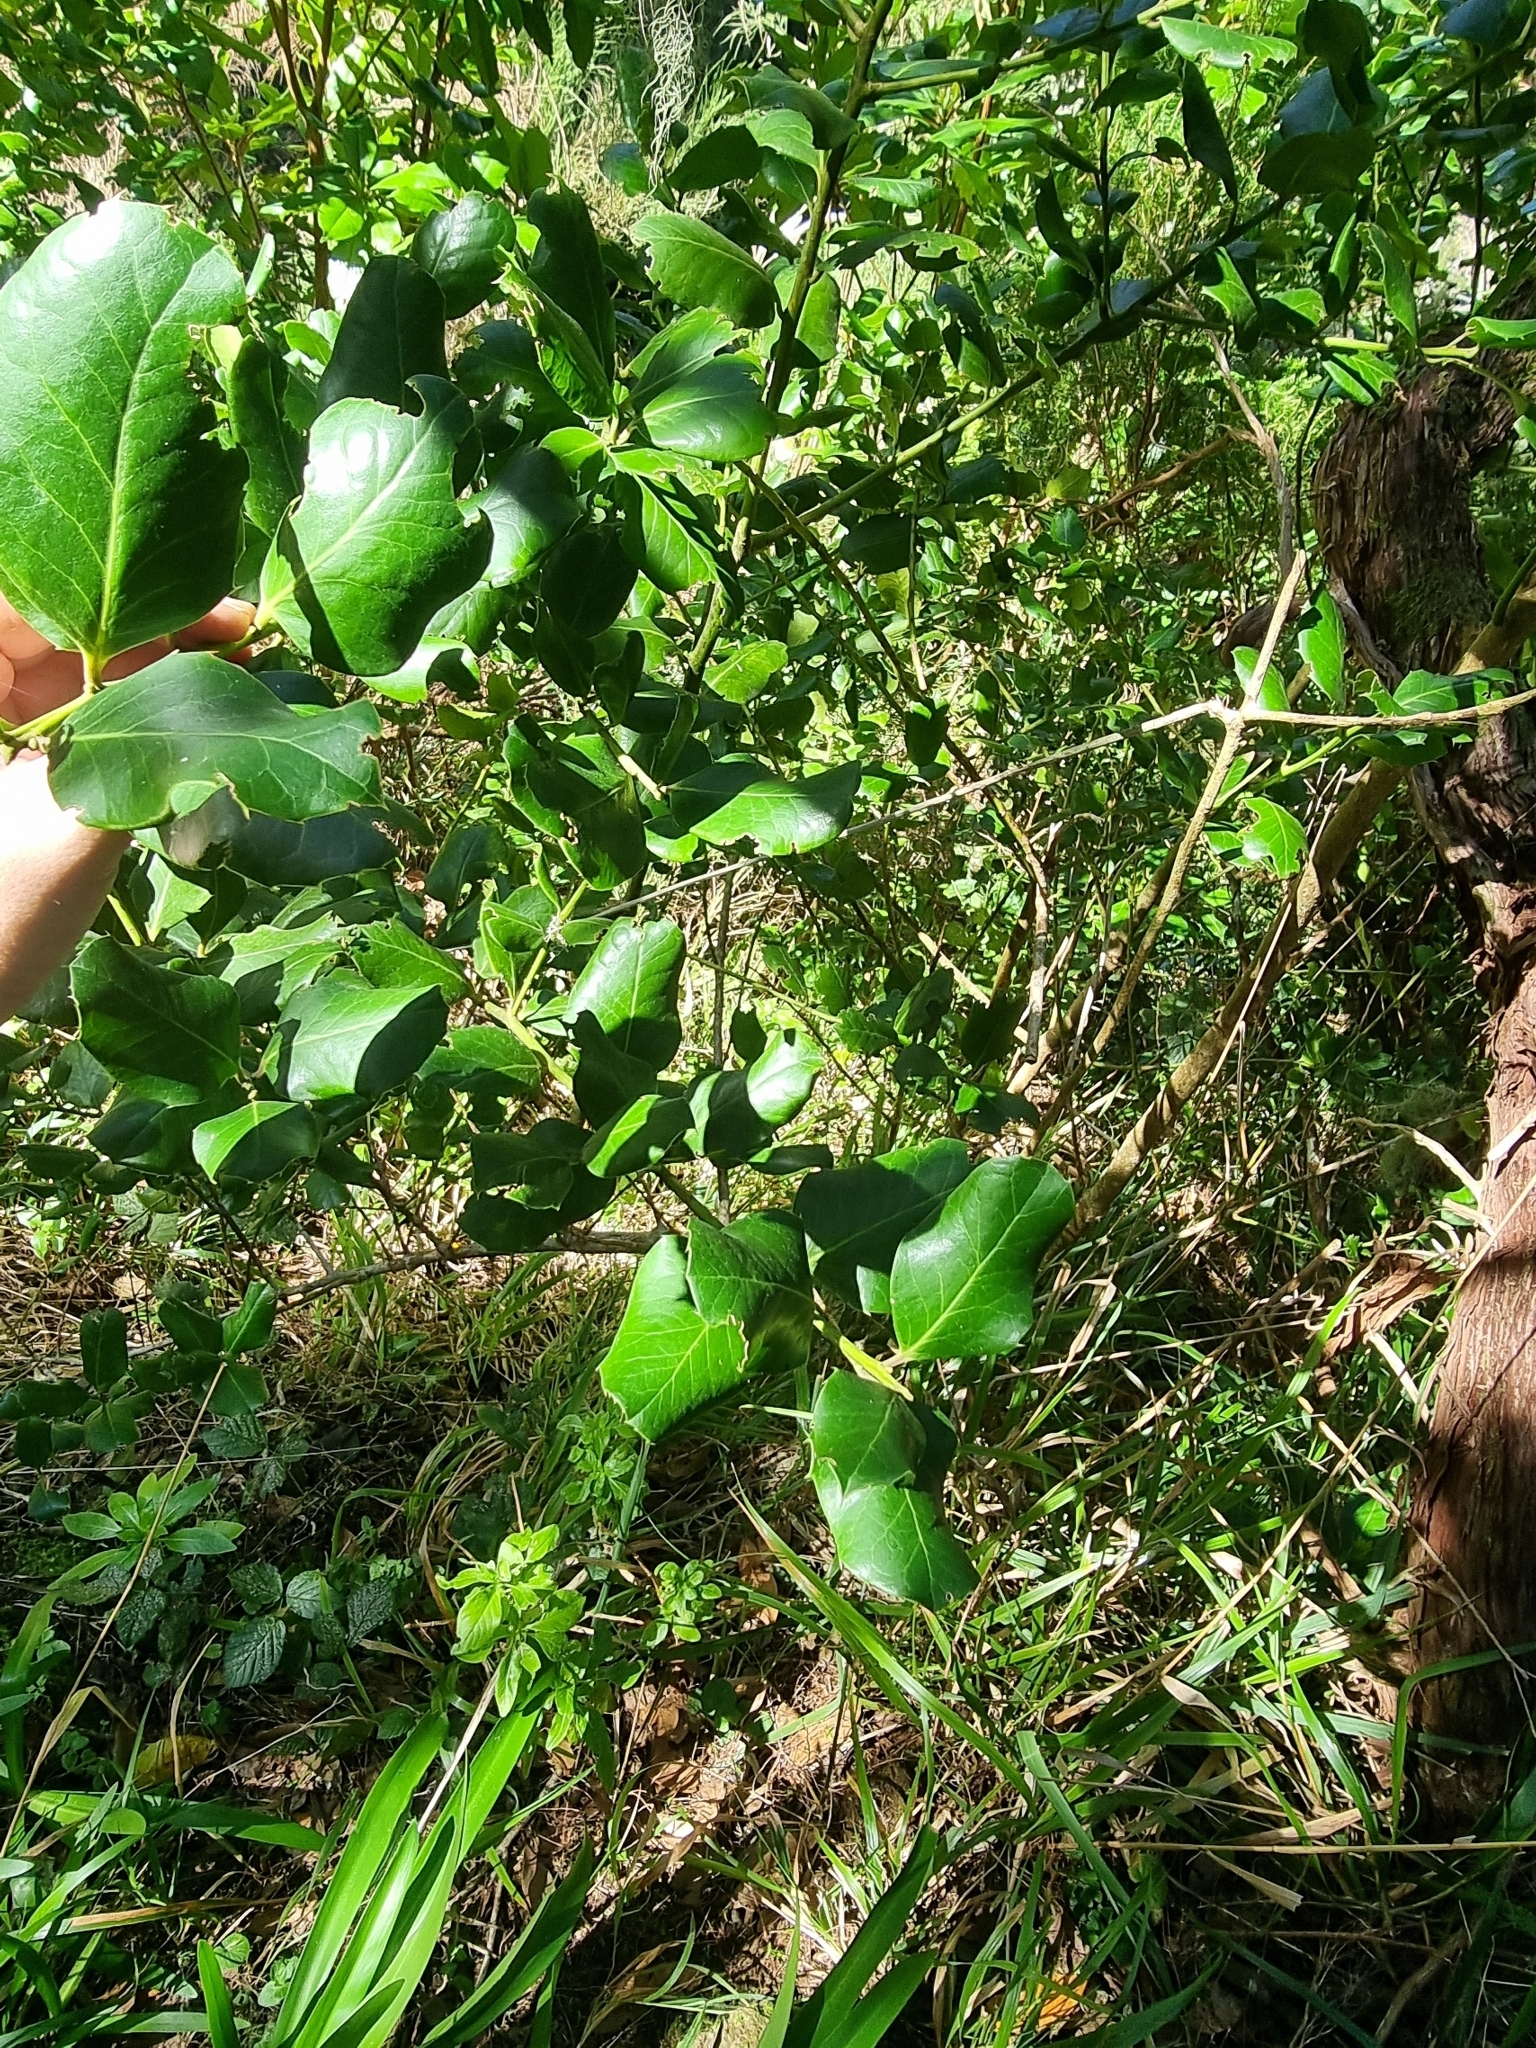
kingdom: Plantae
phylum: Tracheophyta
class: Magnoliopsida
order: Aquifoliales
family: Aquifoliaceae
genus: Ilex
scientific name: Ilex perado
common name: Madeira holly
